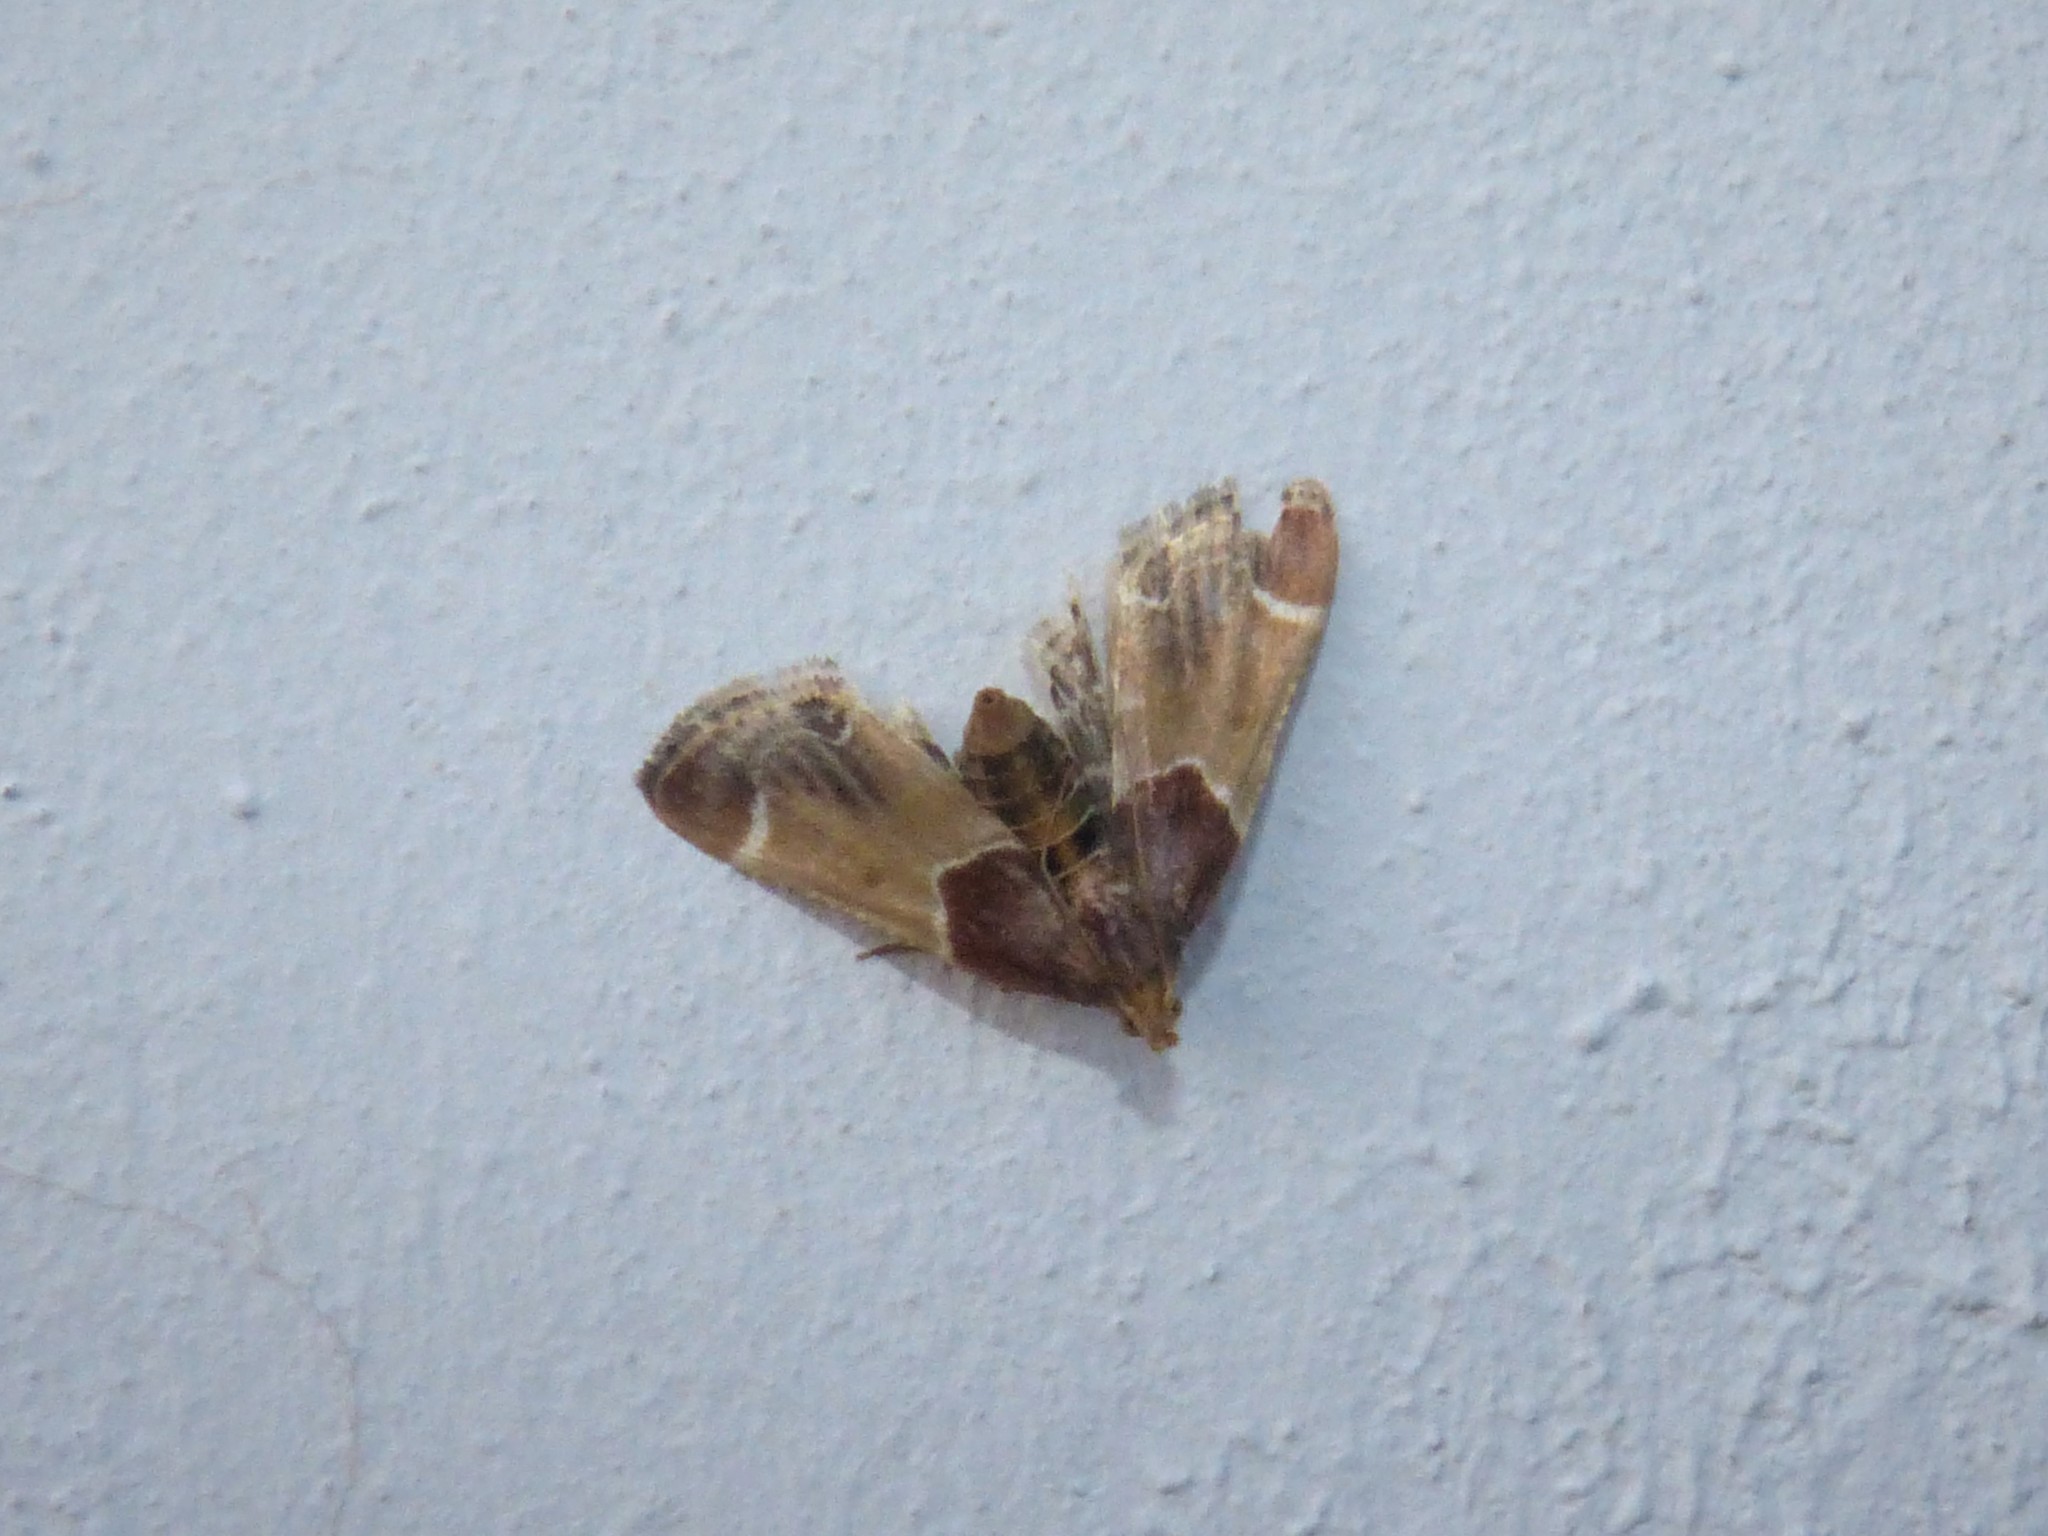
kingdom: Animalia
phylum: Arthropoda
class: Insecta
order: Lepidoptera
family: Pyralidae
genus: Pyralis
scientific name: Pyralis farinalis
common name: Meal moth
